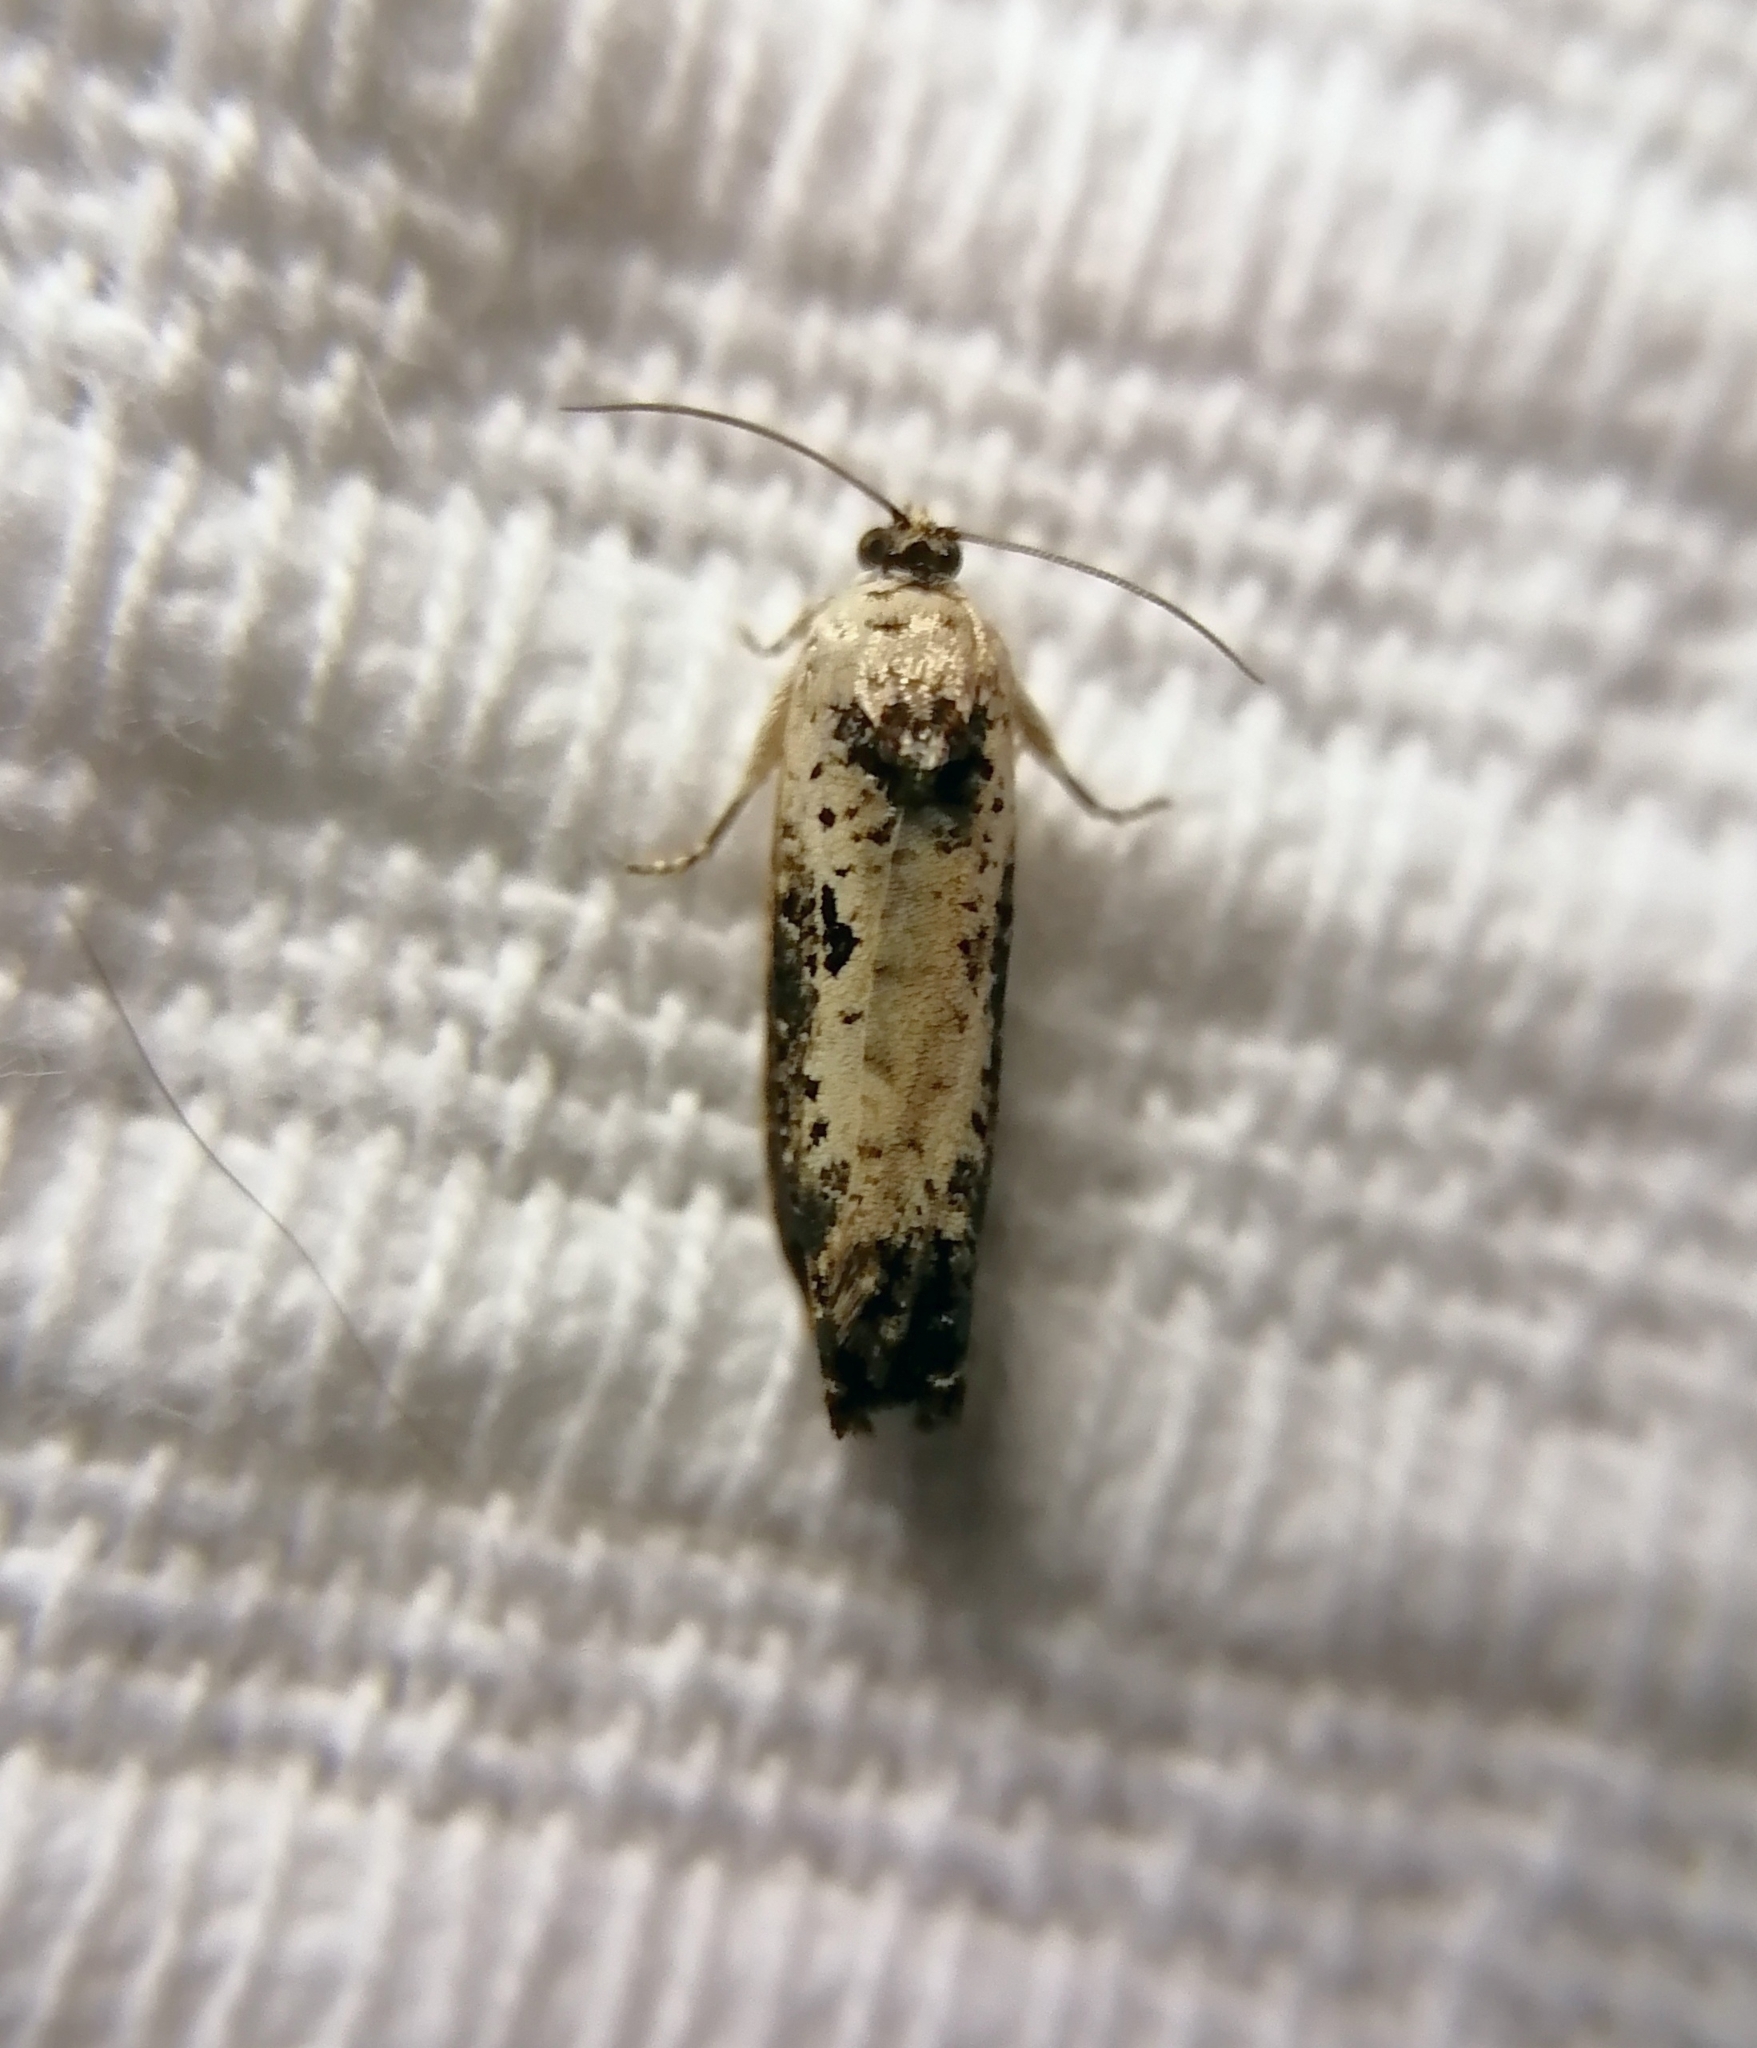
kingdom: Animalia
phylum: Arthropoda
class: Insecta
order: Lepidoptera
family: Tortricidae
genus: Hedya
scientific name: Hedya salicella
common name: Large tortricid moth
